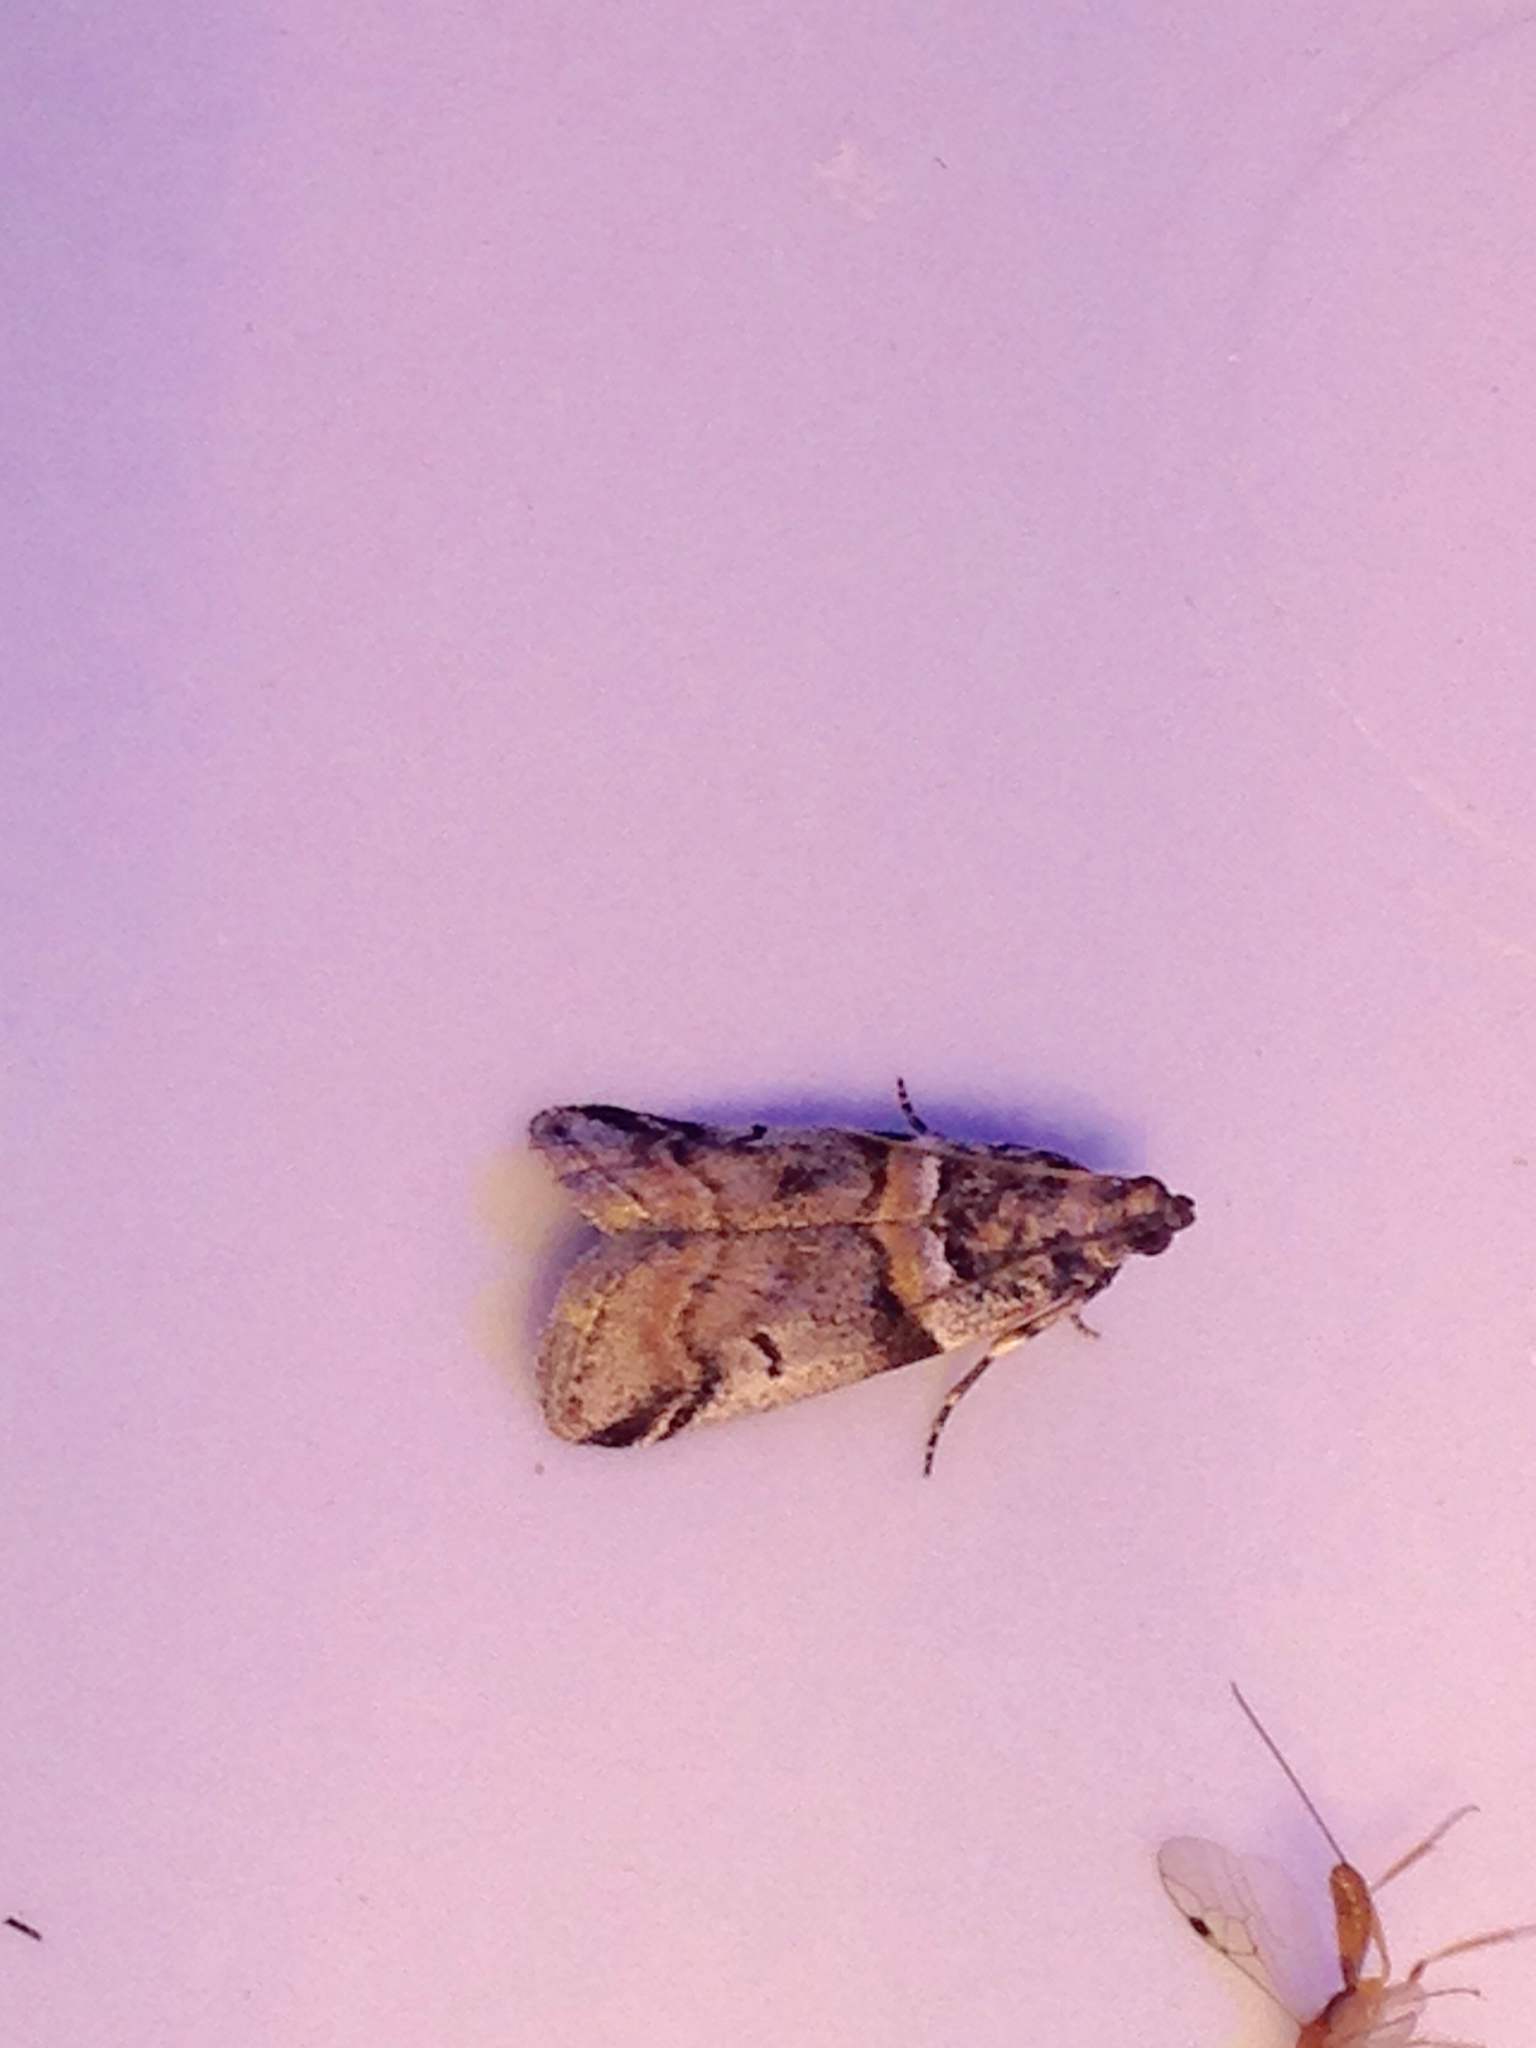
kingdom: Animalia
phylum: Arthropoda
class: Insecta
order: Lepidoptera
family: Pyralidae
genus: Acrobasis
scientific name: Acrobasis tricolorella
